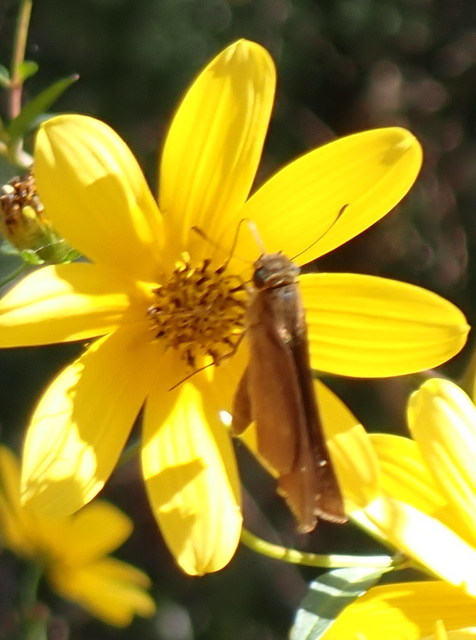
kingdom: Animalia
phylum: Arthropoda
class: Insecta
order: Lepidoptera
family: Hesperiidae
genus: Panoquina
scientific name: Panoquina ocola
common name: Ocola skipper
